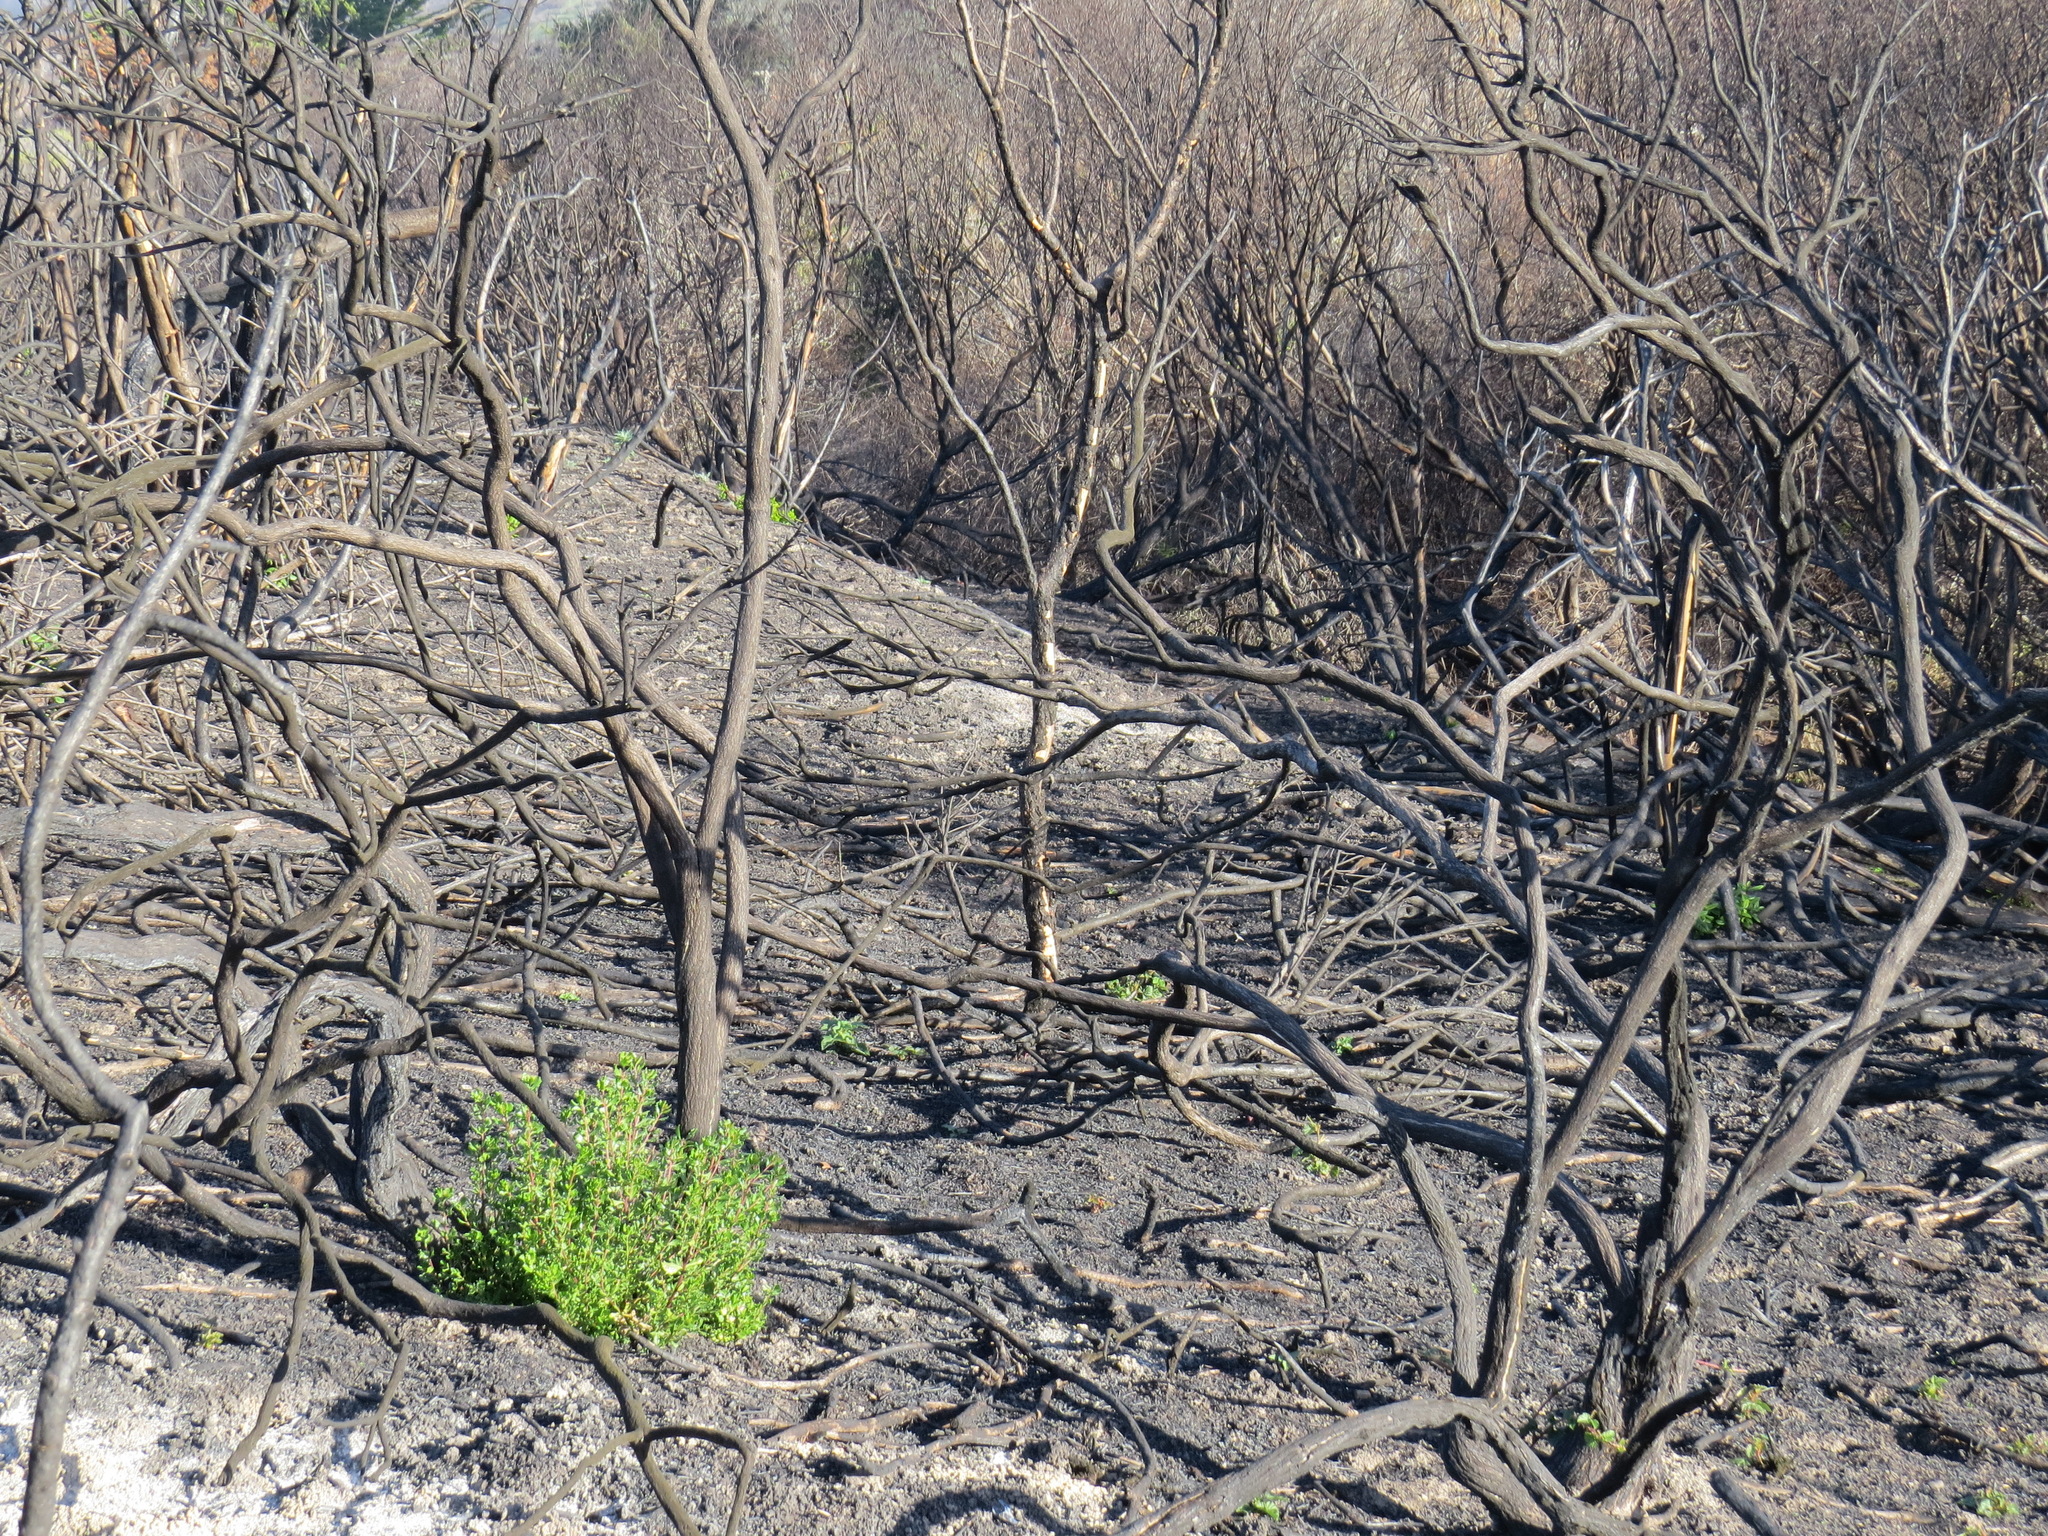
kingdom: Plantae
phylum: Tracheophyta
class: Magnoliopsida
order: Asterales
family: Asteraceae
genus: Baccharis
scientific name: Baccharis pilularis
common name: Coyotebrush
